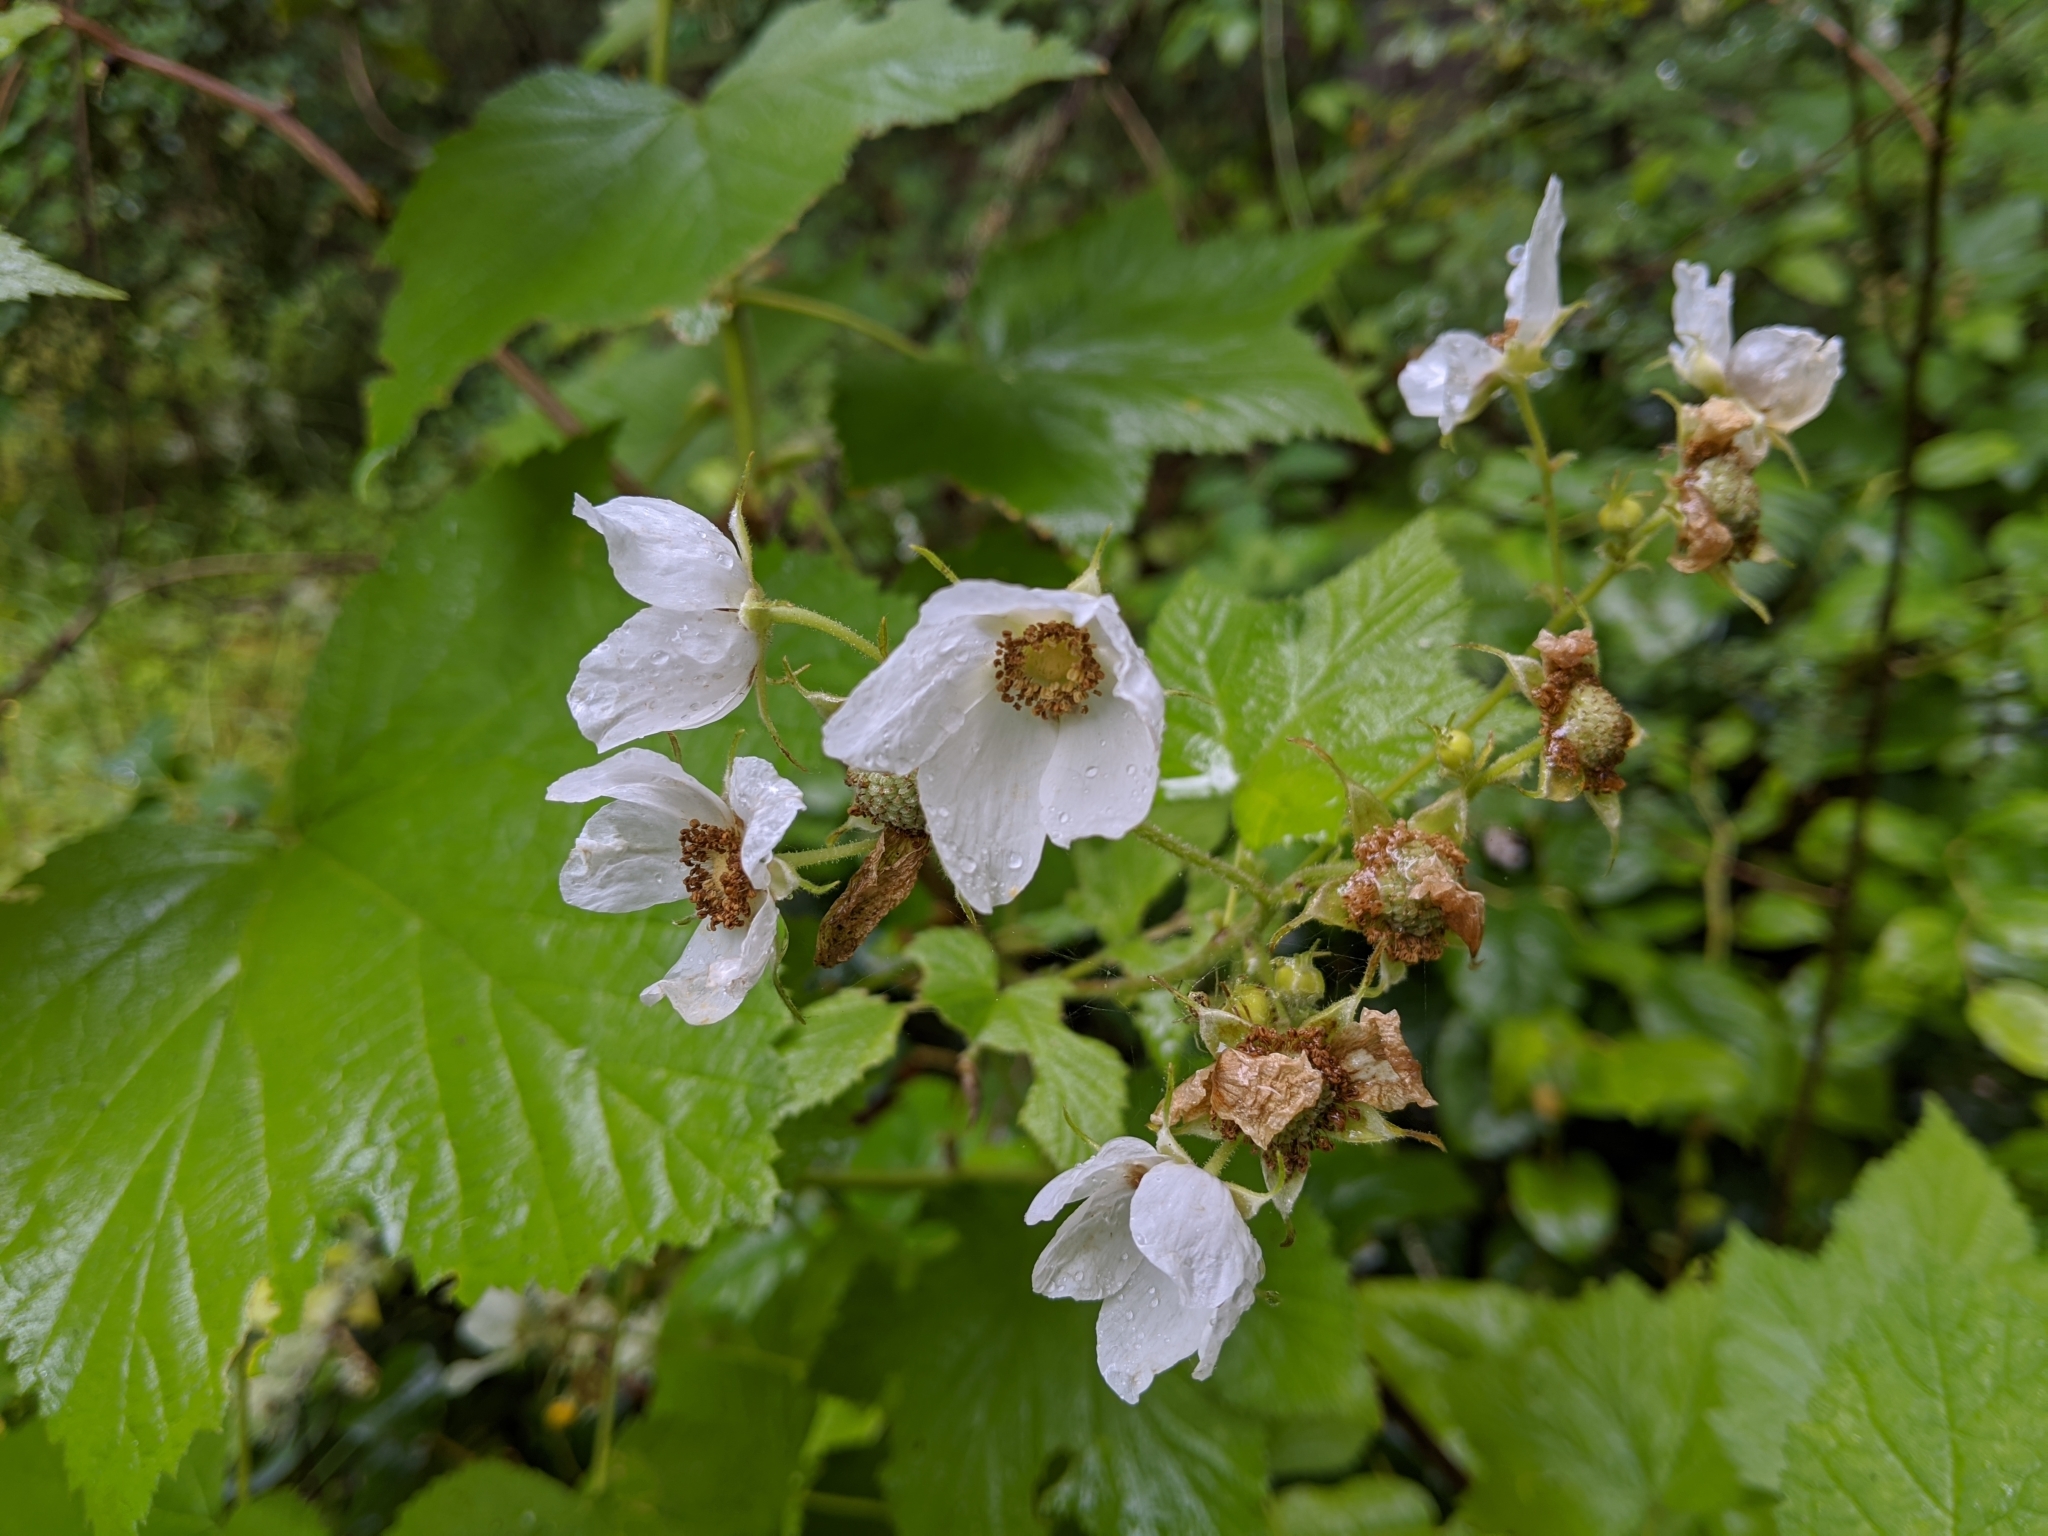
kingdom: Plantae
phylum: Tracheophyta
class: Magnoliopsida
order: Rosales
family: Rosaceae
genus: Rubus
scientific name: Rubus parviflorus
